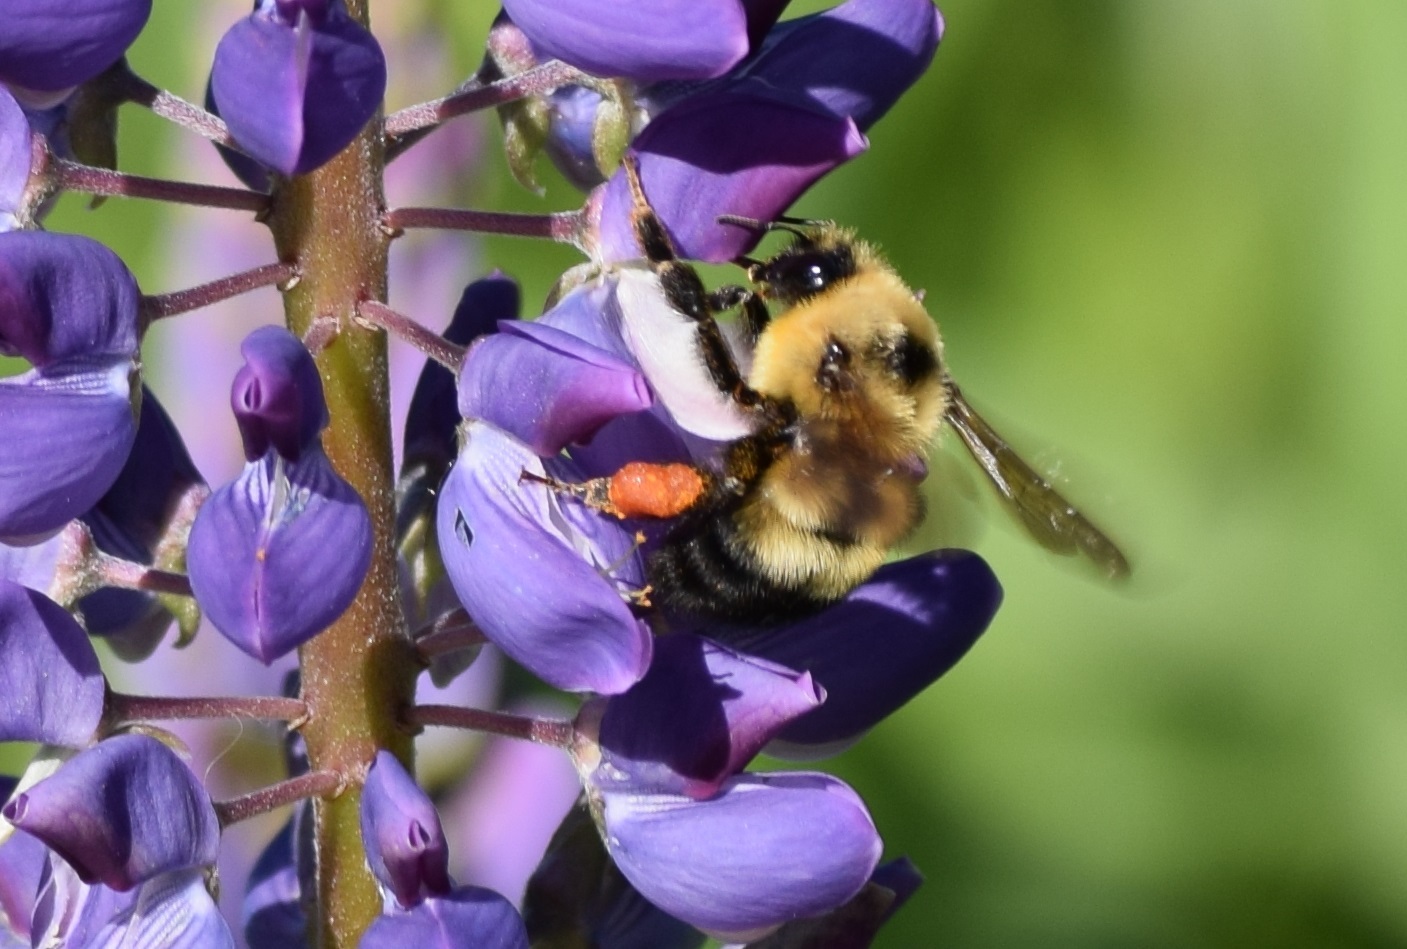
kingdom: Animalia
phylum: Arthropoda
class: Insecta
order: Hymenoptera
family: Apidae
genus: Bombus
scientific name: Bombus rufocinctus
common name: Red-belted bumble bee
